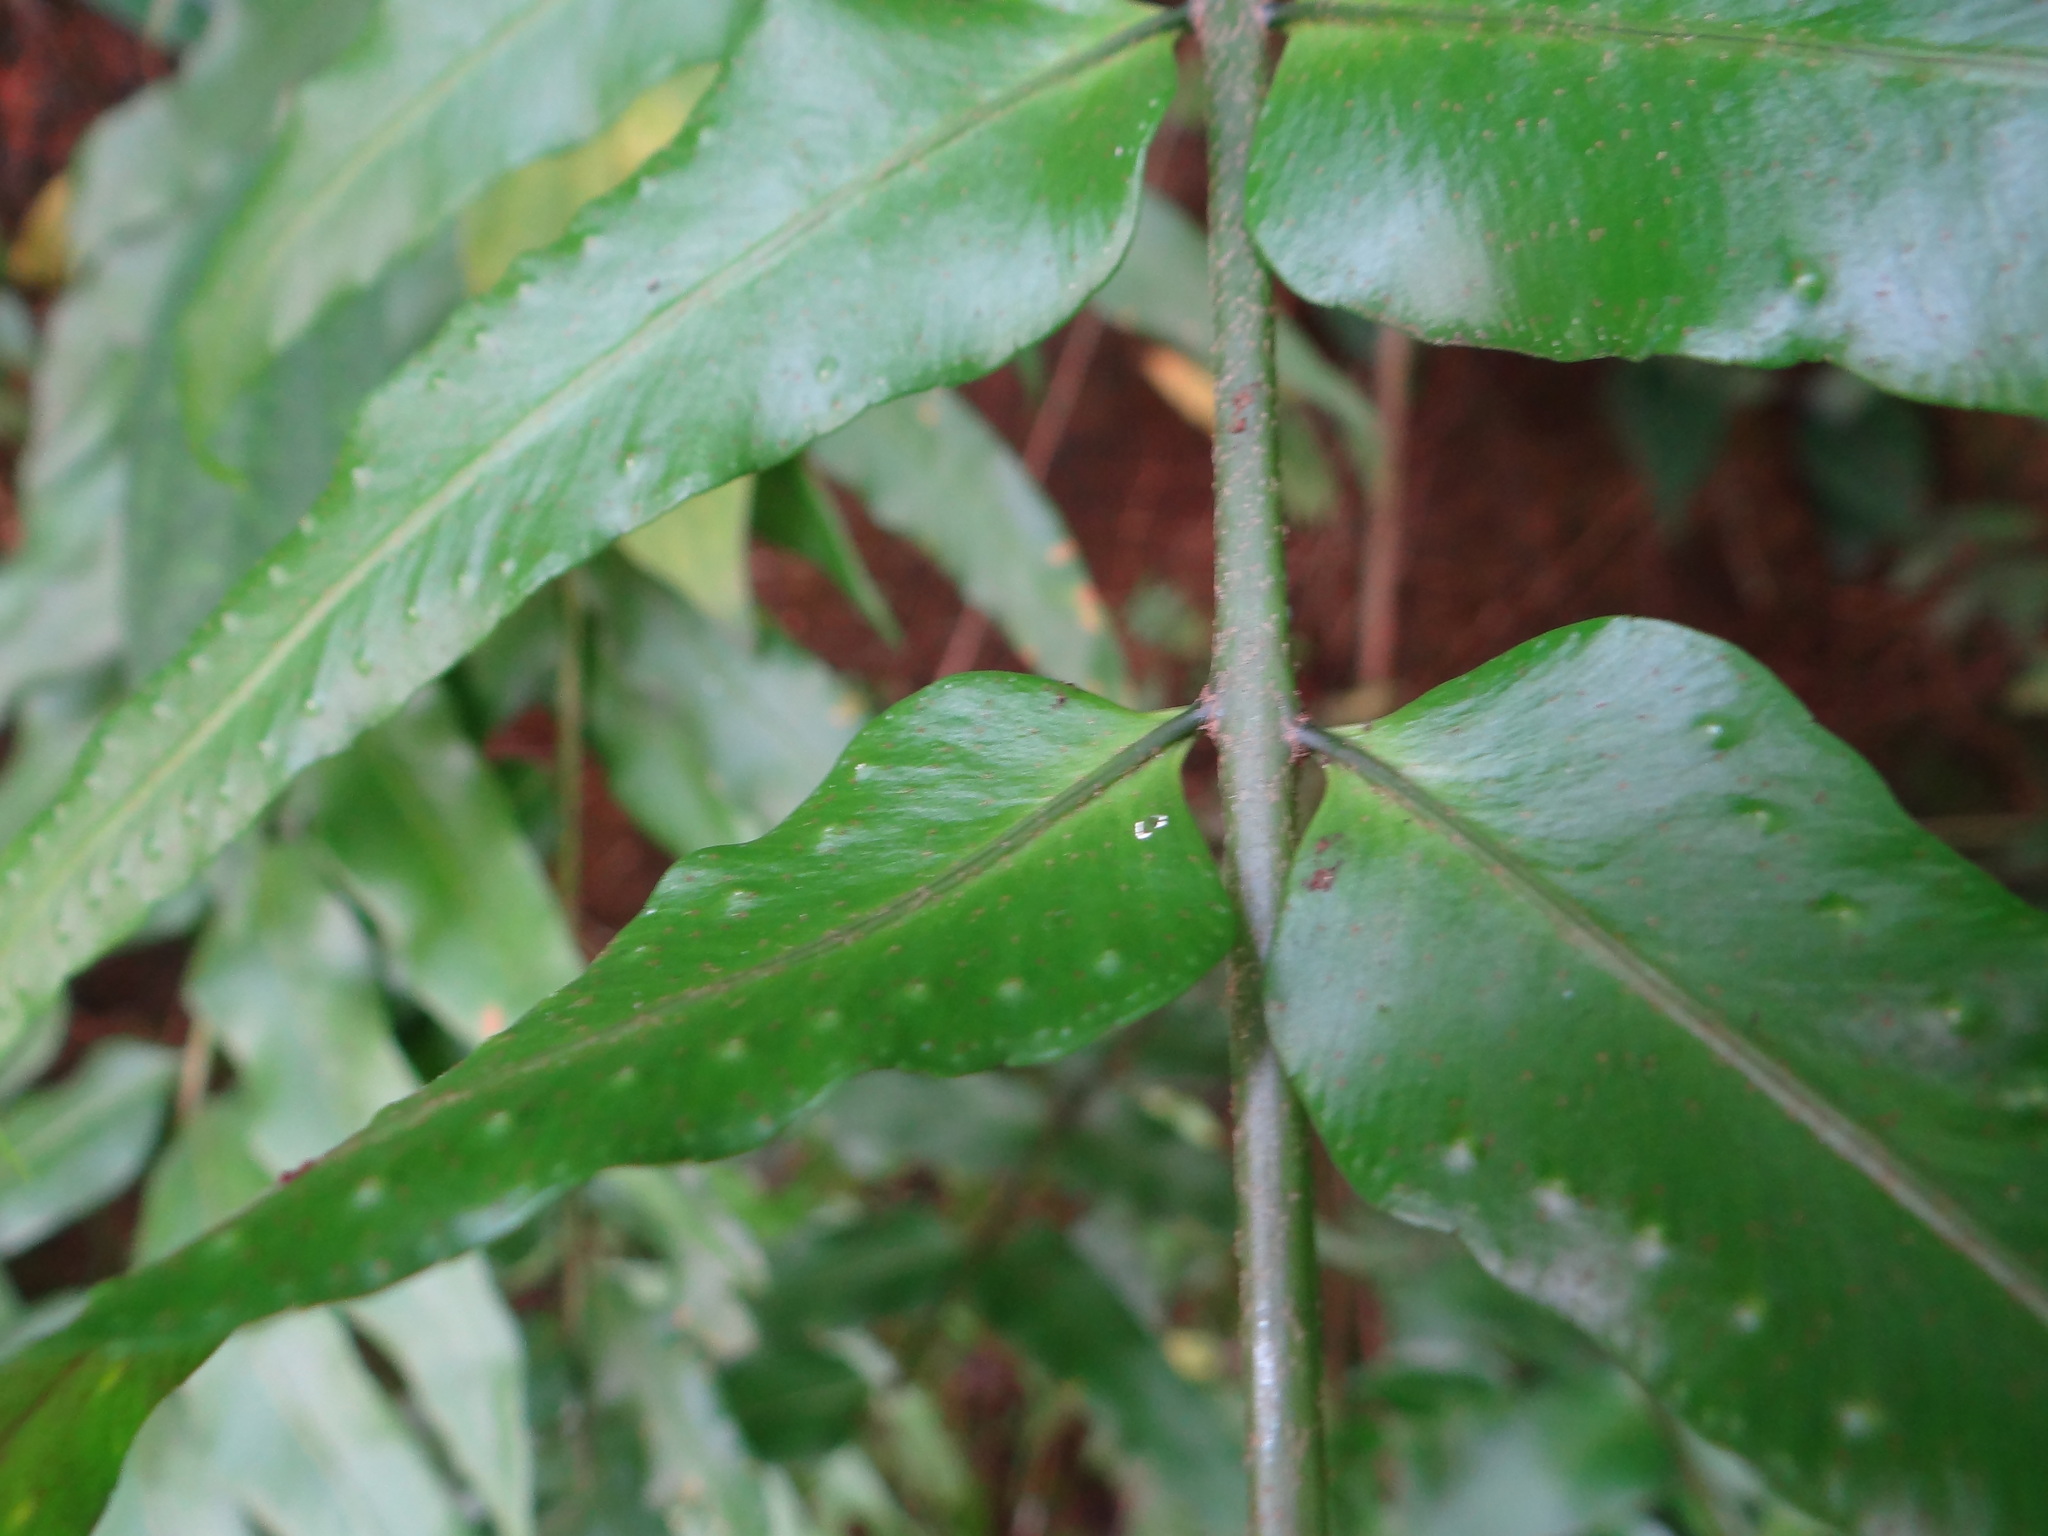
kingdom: Plantae
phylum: Tracheophyta
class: Polypodiopsida
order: Polypodiales
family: Nephrolepidaceae
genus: Nephrolepis
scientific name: Nephrolepis biserrata
